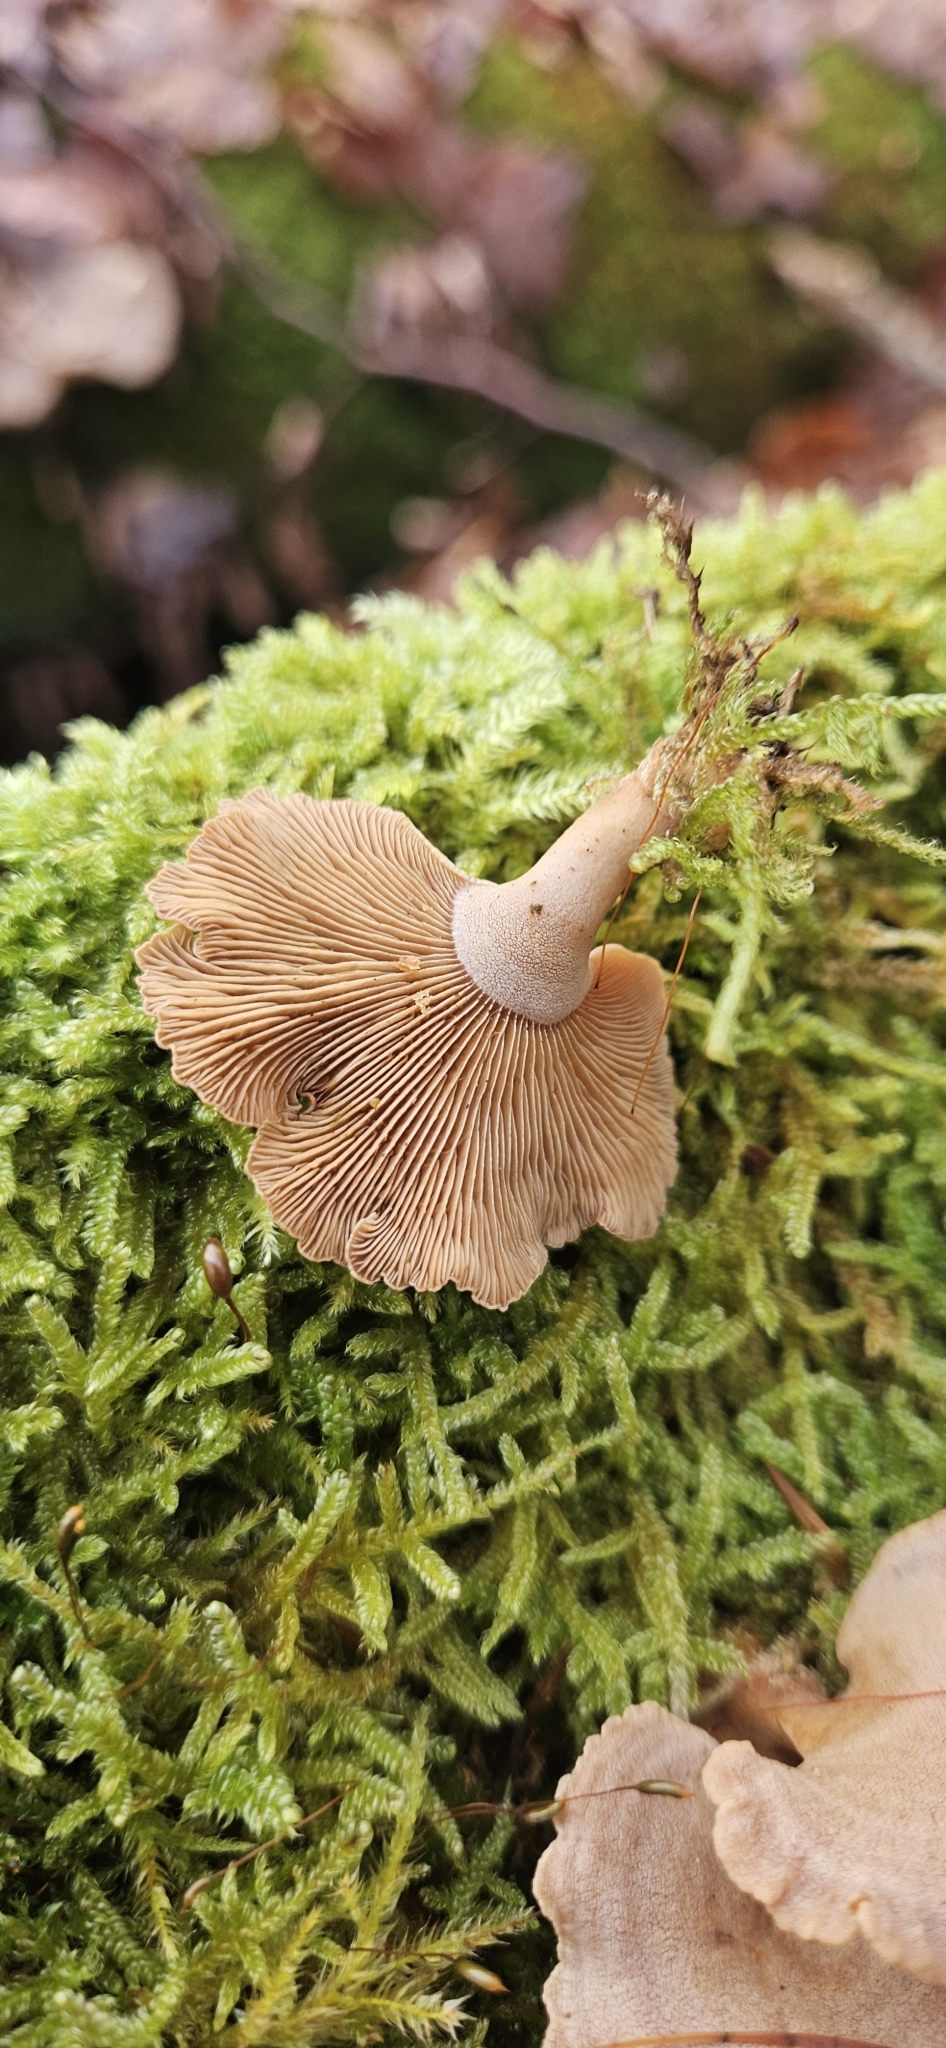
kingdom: Fungi
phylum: Basidiomycota
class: Agaricomycetes
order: Agaricales
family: Mycenaceae
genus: Panellus
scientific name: Panellus stipticus
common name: Bitter oysterling
